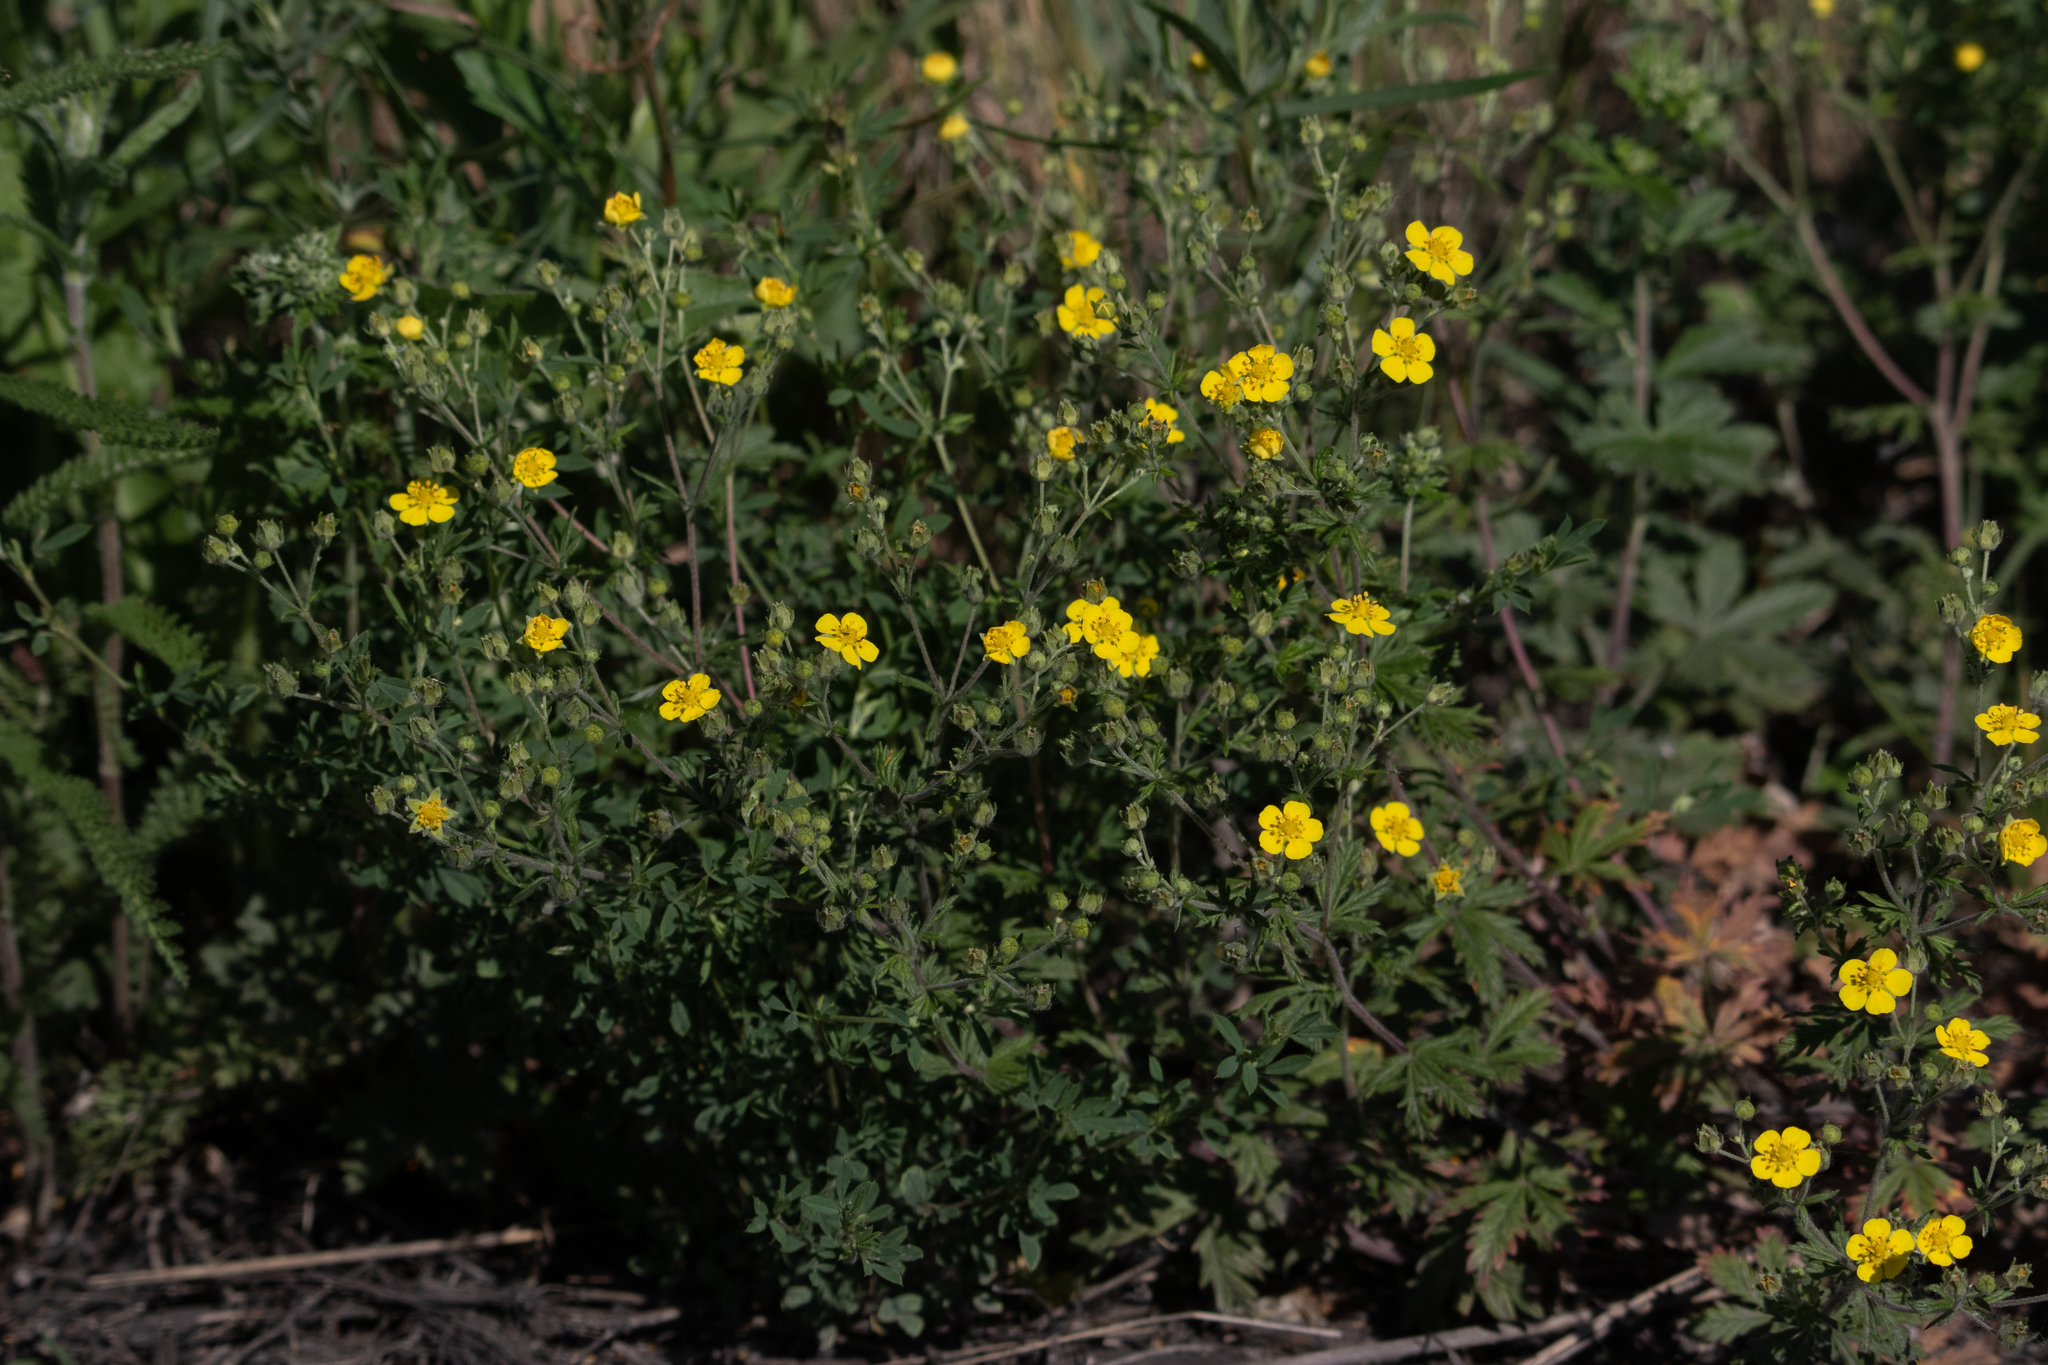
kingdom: Plantae
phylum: Tracheophyta
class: Magnoliopsida
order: Rosales
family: Rosaceae
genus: Potentilla
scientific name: Potentilla argentea
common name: Hoary cinquefoil
